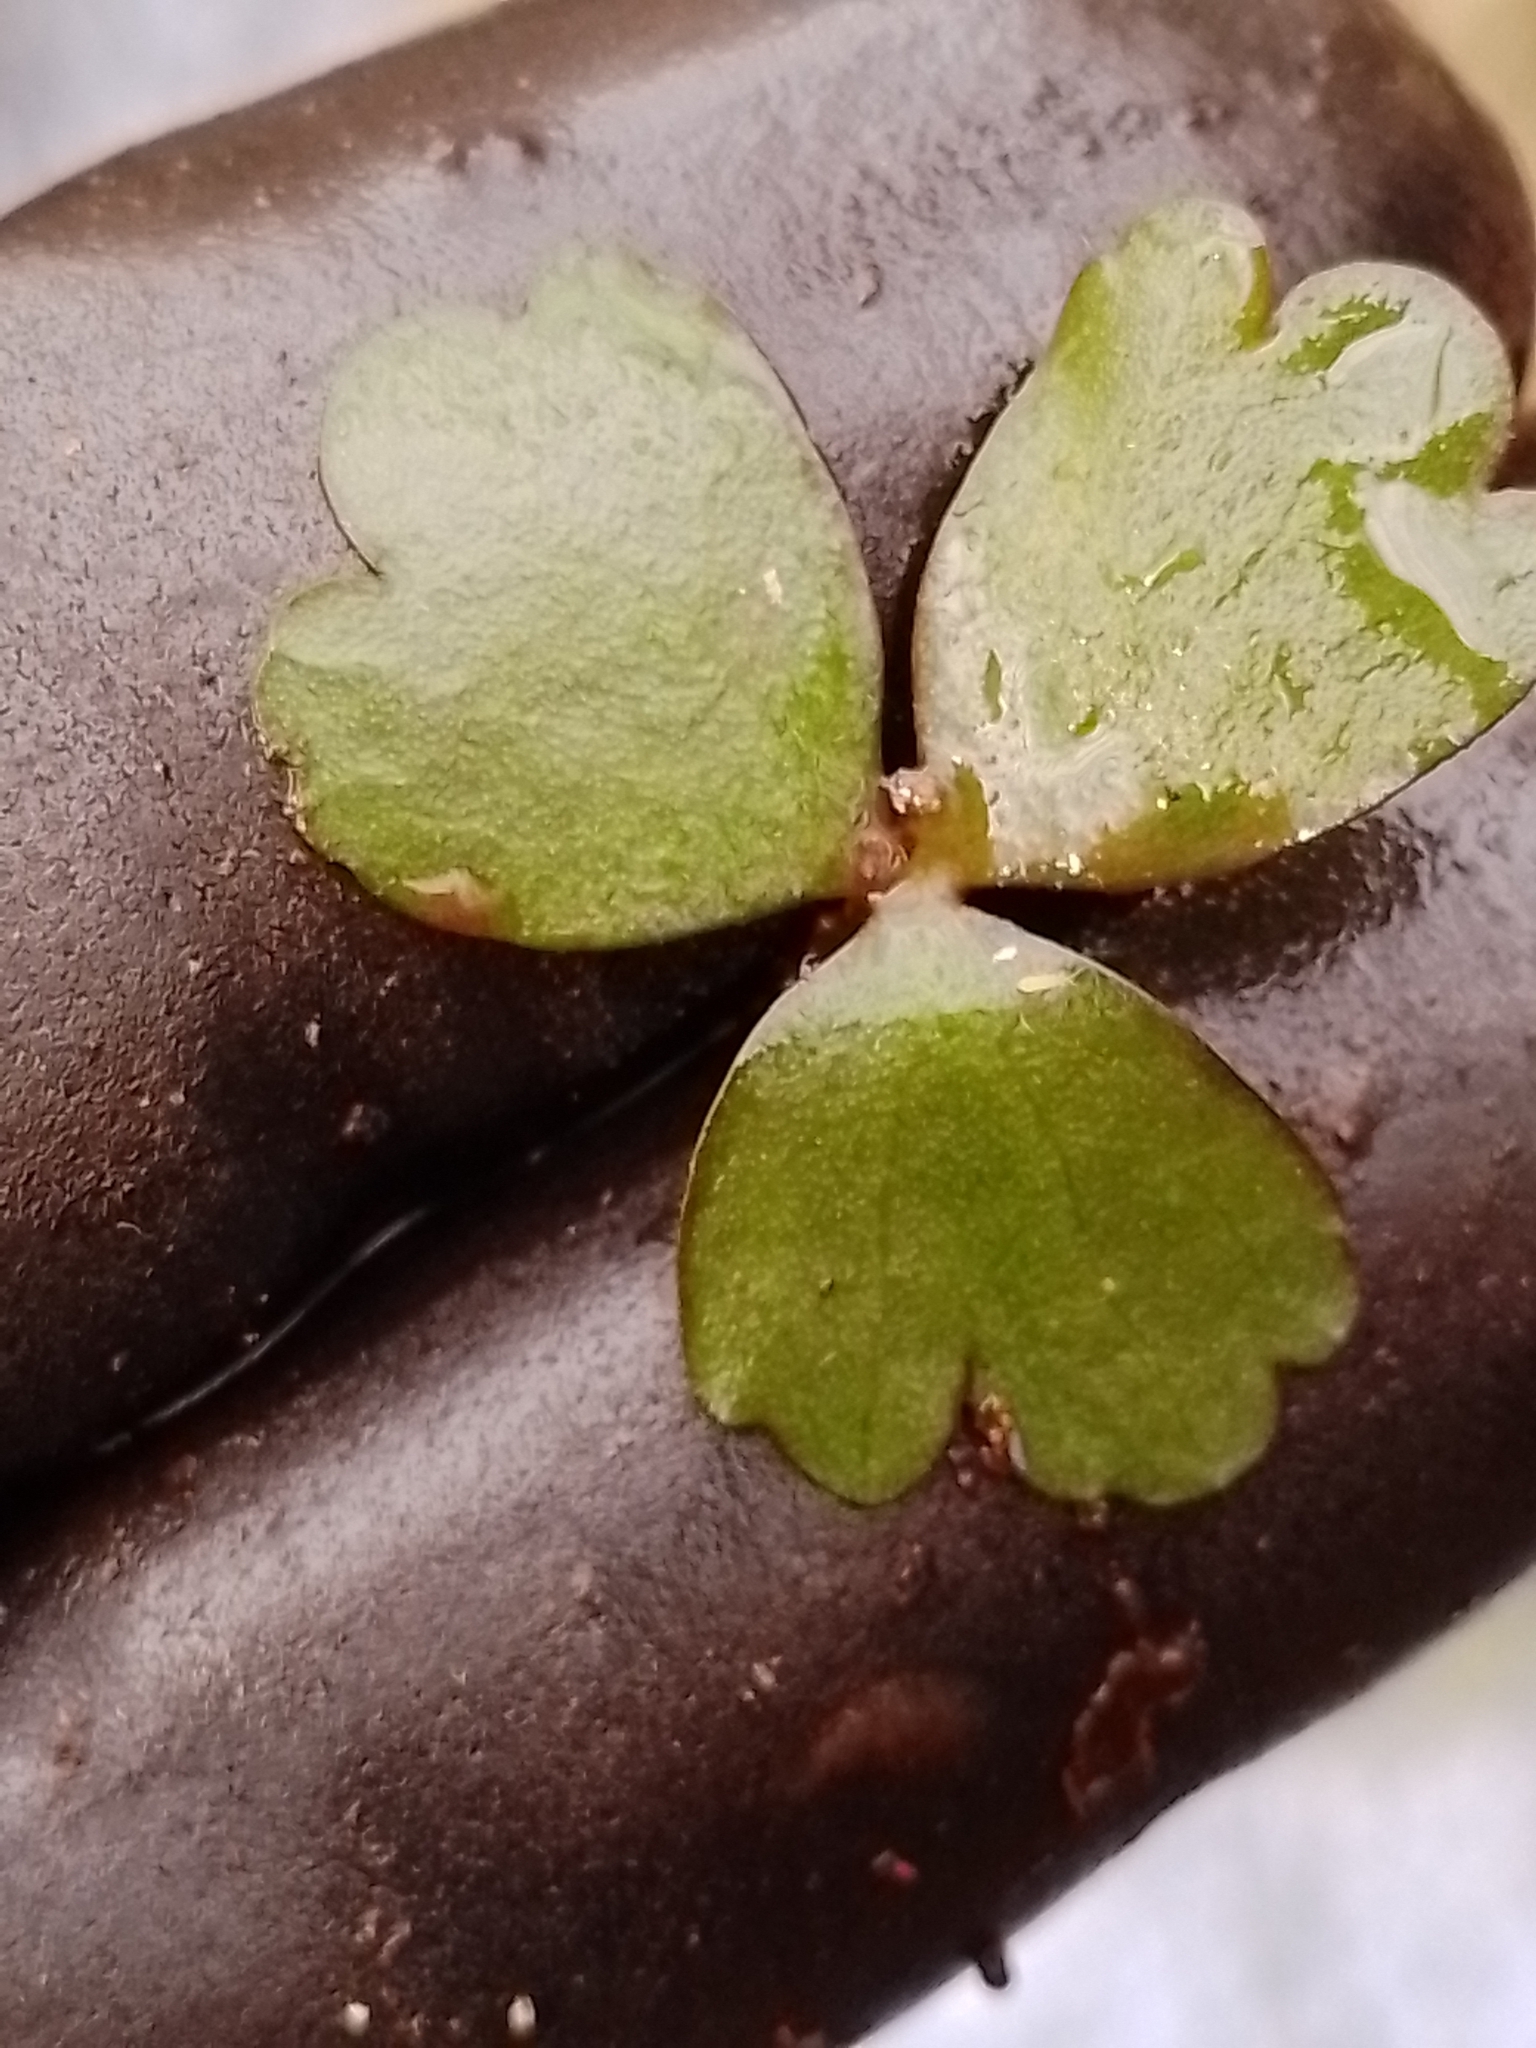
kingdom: Plantae
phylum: Tracheophyta
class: Magnoliopsida
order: Ranunculales
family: Ranunculaceae
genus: Ranunculus
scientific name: Ranunculus macropus
